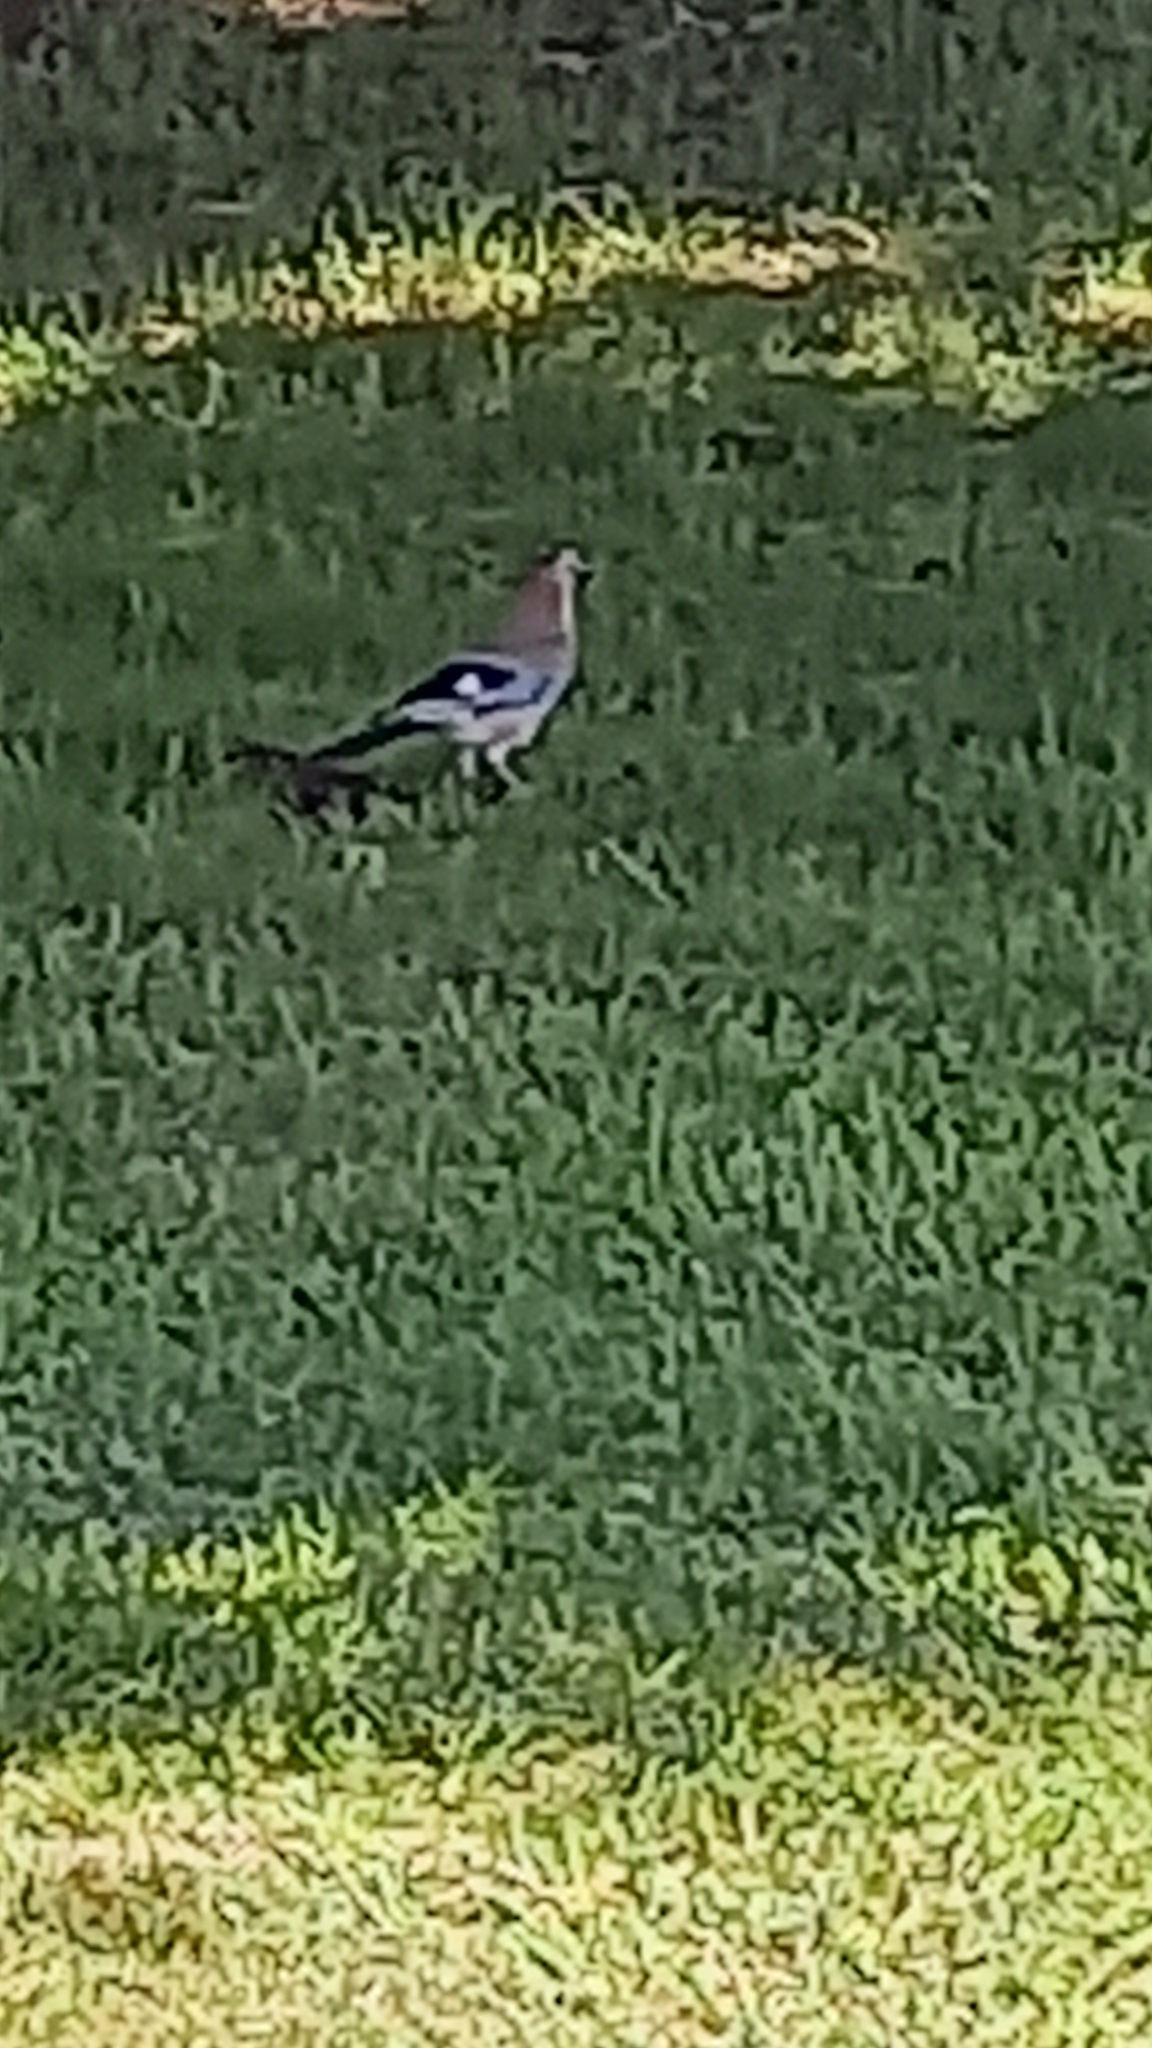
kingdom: Animalia
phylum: Chordata
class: Aves
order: Passeriformes
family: Corvidae
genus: Garrulus
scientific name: Garrulus glandarius
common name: Eurasian jay
